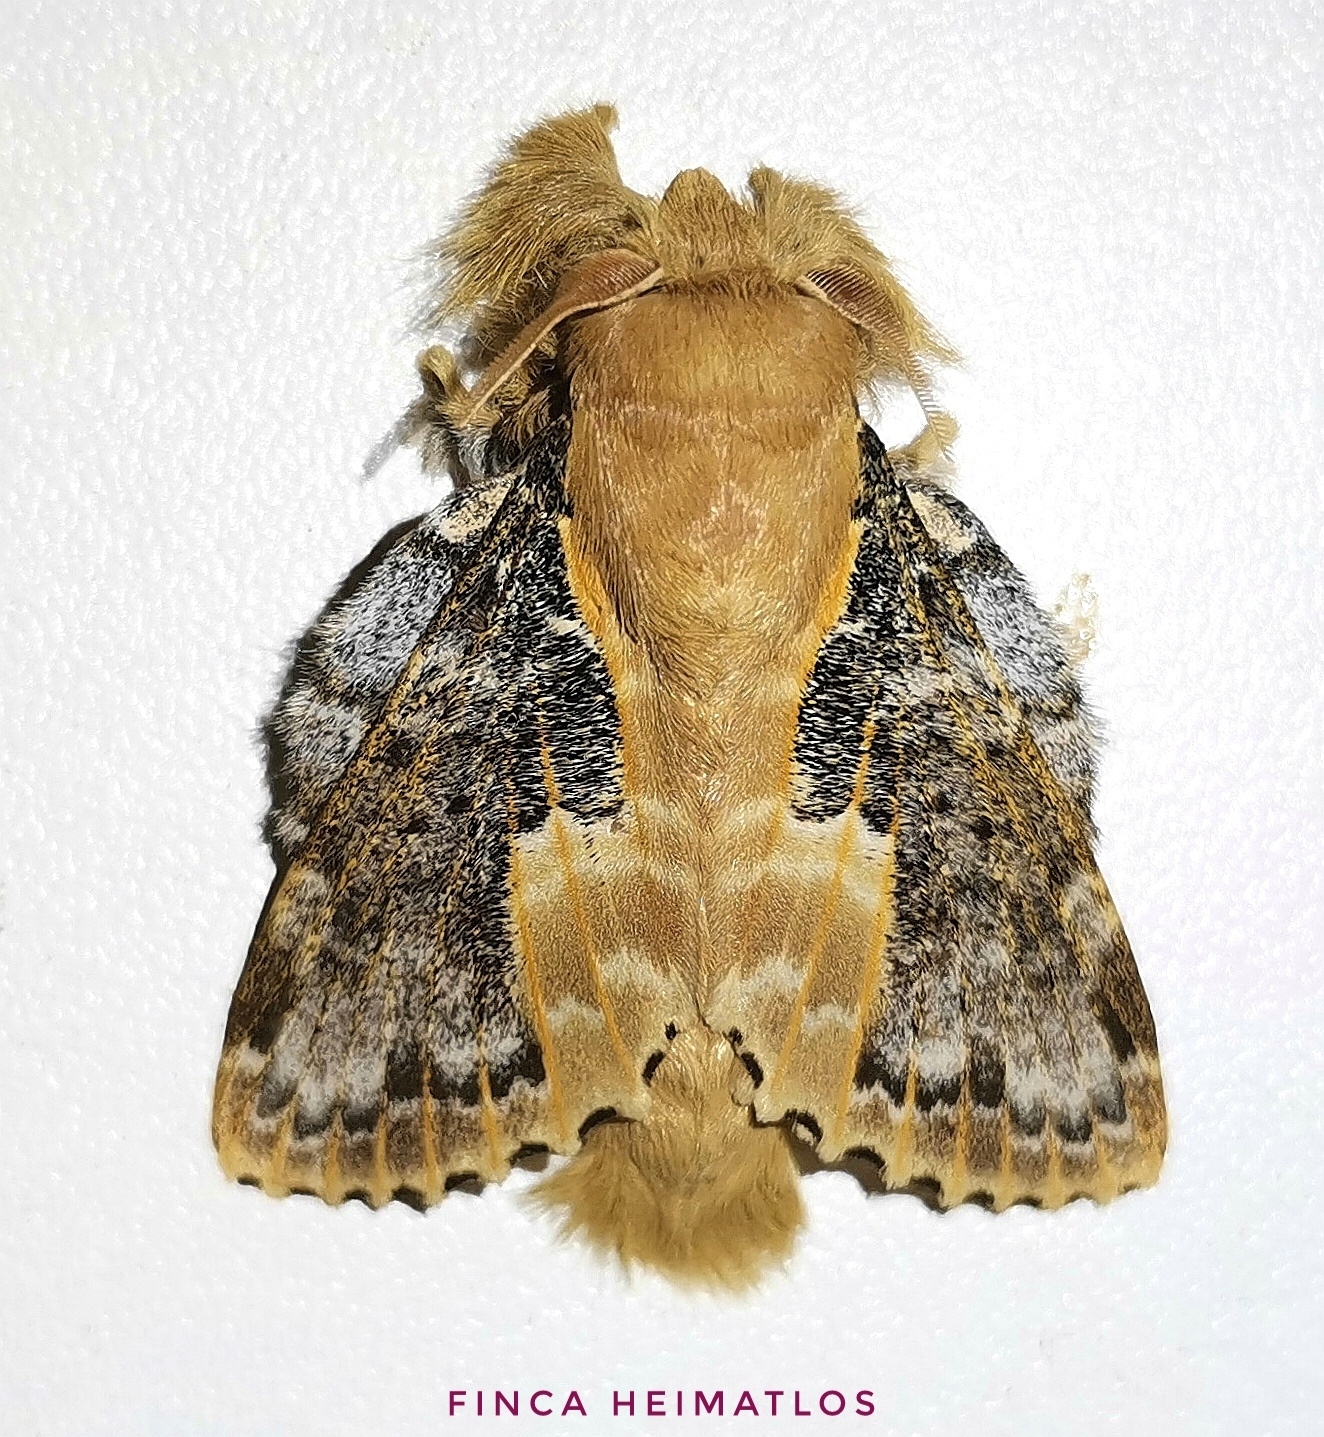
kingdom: Animalia
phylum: Arthropoda
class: Insecta
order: Lepidoptera
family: Lasiocampidae
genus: Euglyphis
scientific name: Euglyphis claudia
